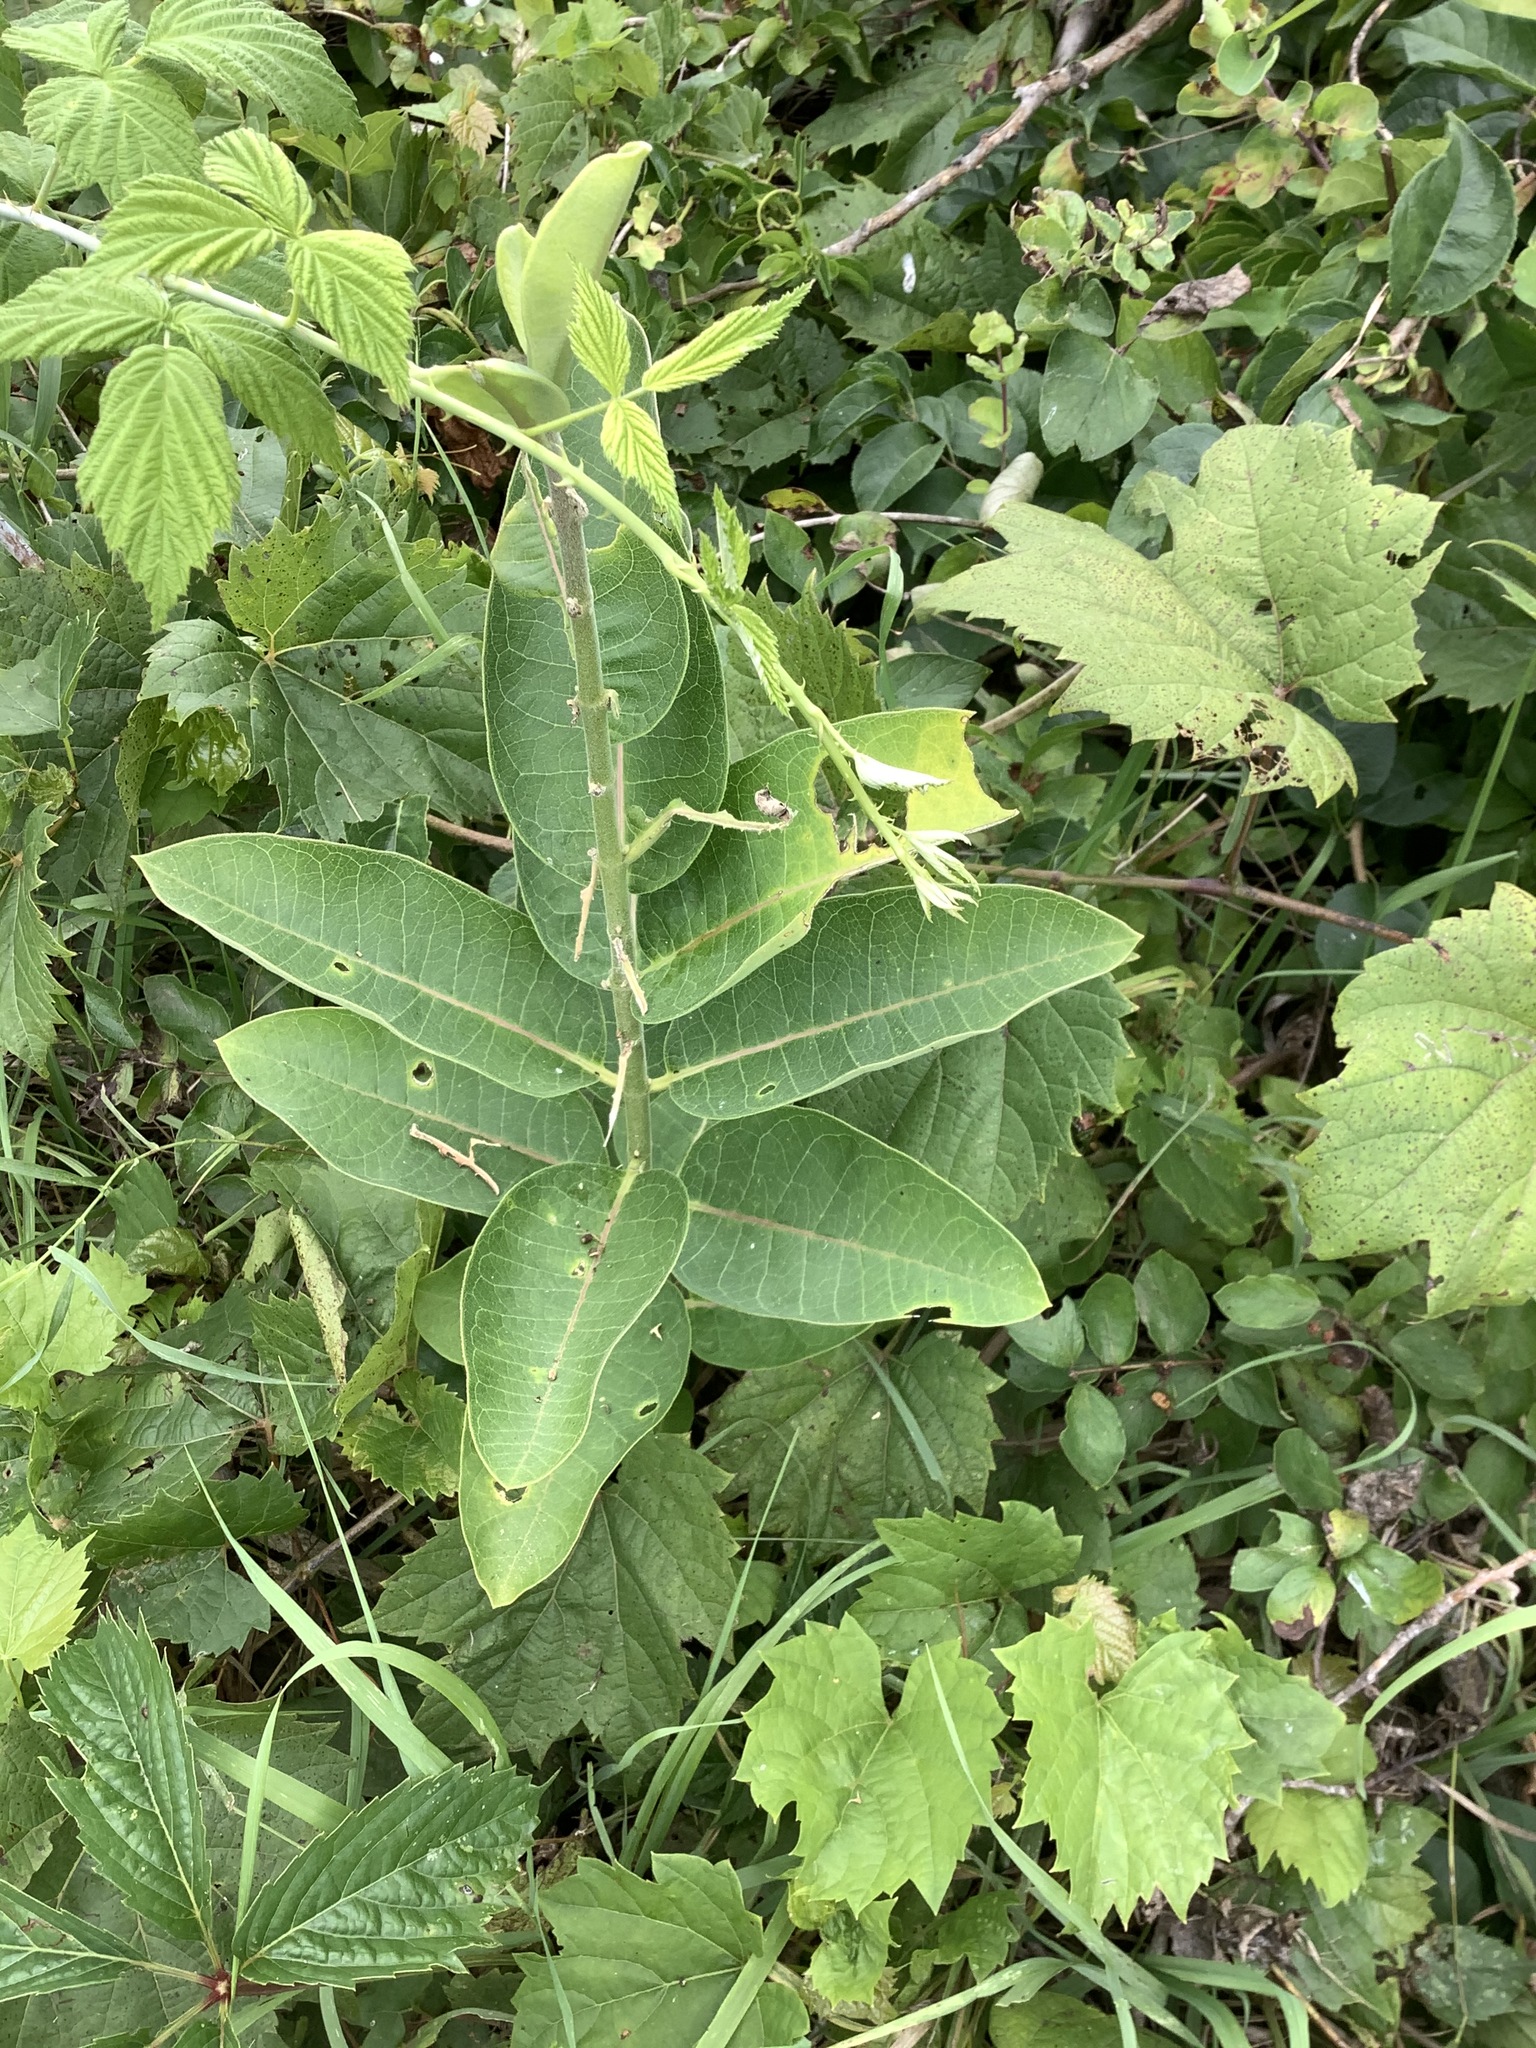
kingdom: Plantae
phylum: Tracheophyta
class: Magnoliopsida
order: Gentianales
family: Apocynaceae
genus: Asclepias
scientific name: Asclepias syriaca
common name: Common milkweed
